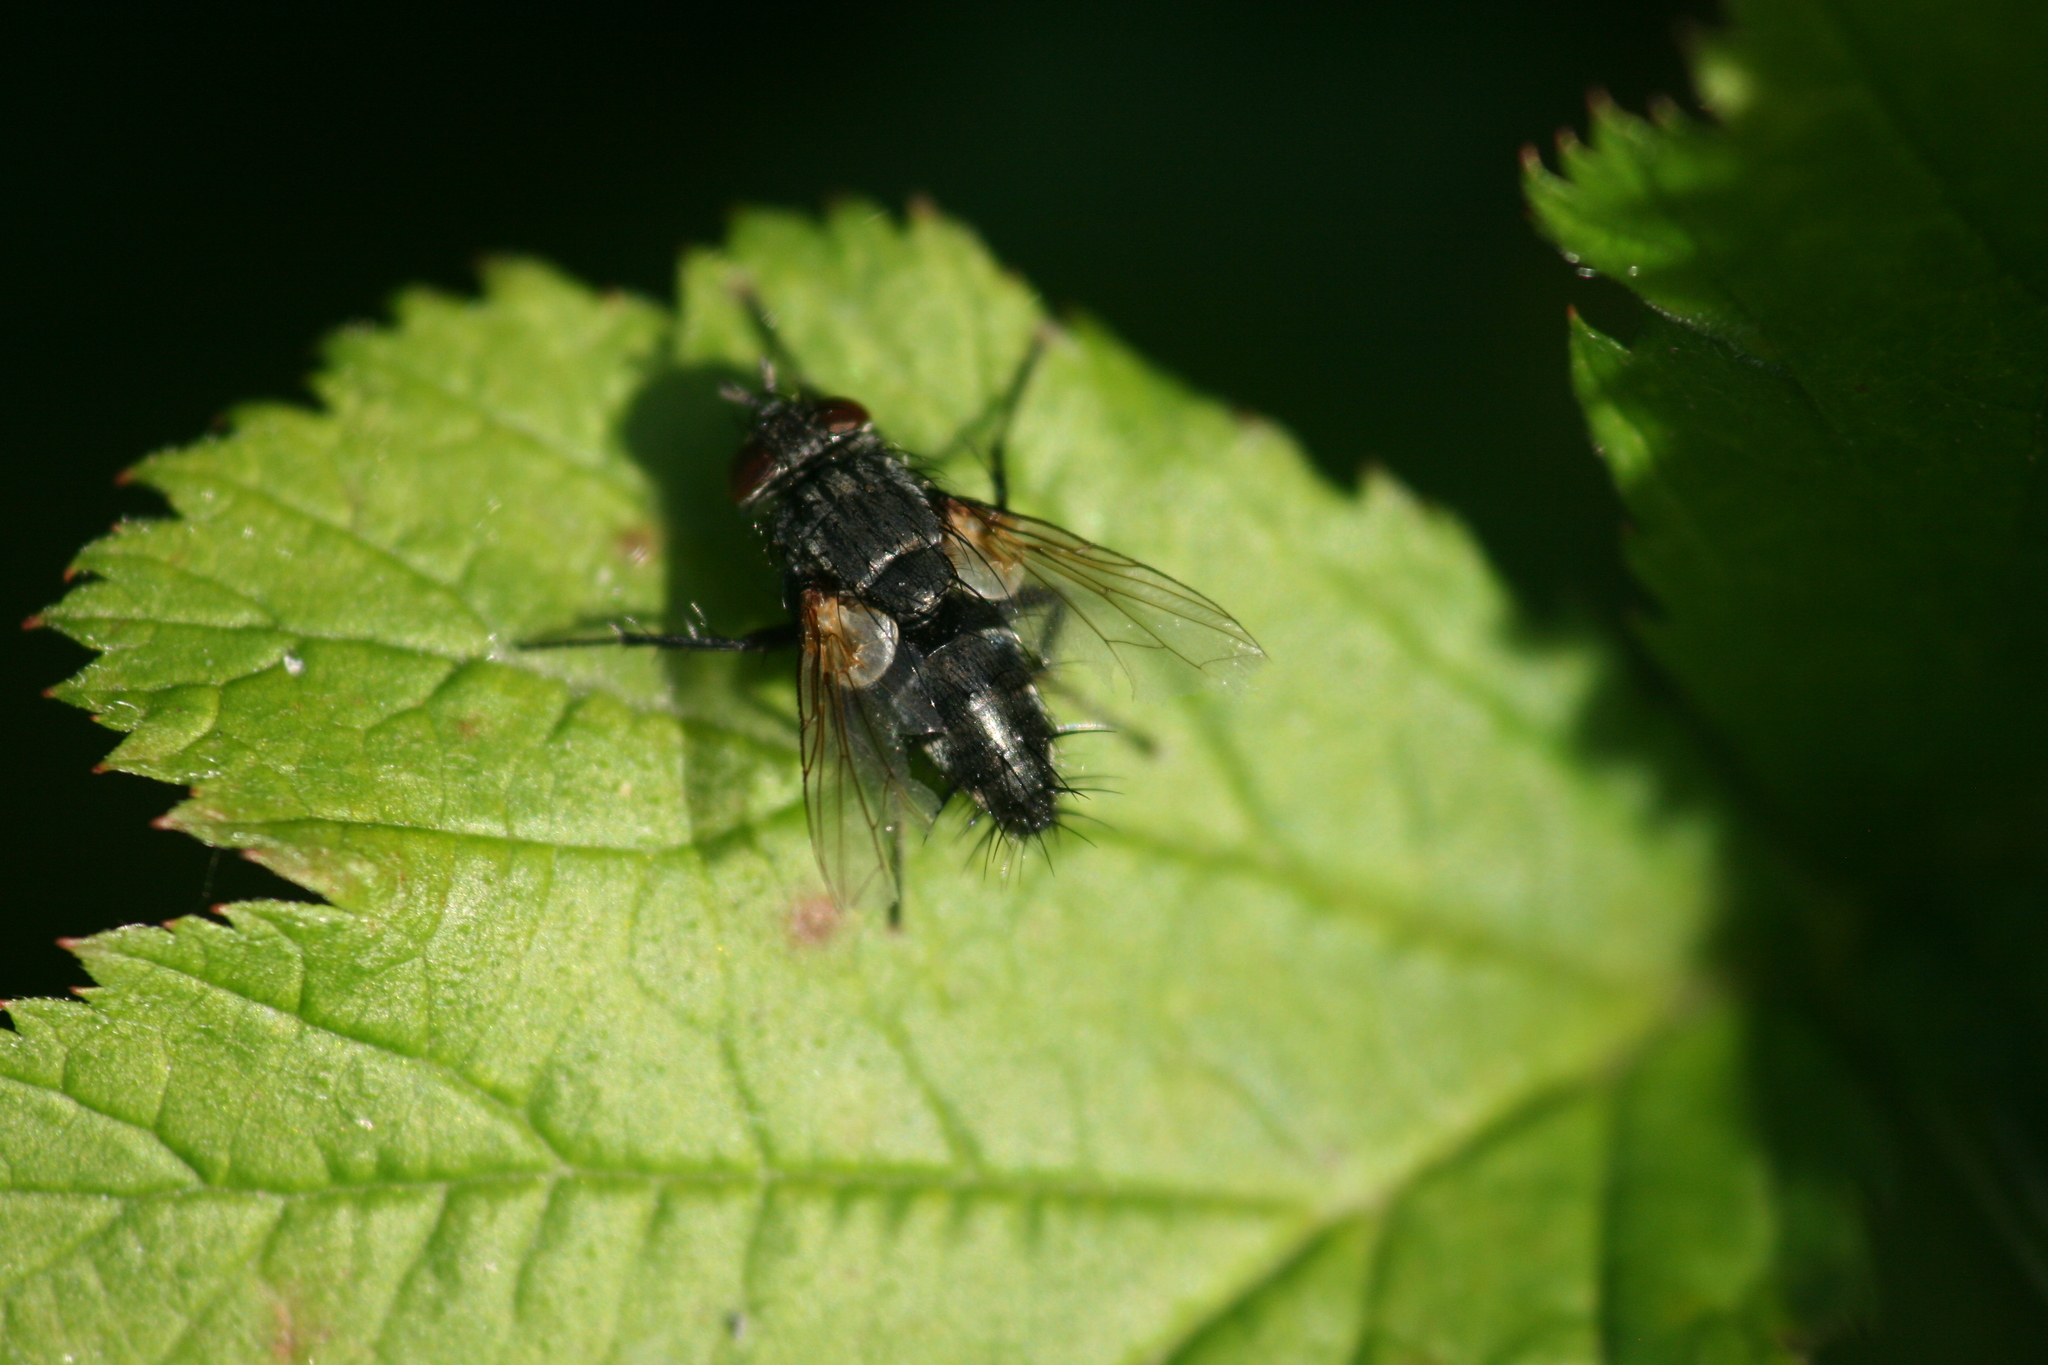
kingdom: Animalia
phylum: Arthropoda
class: Insecta
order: Diptera
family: Tachinidae
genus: Voria
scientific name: Voria ruralis
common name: Parasitic fly
